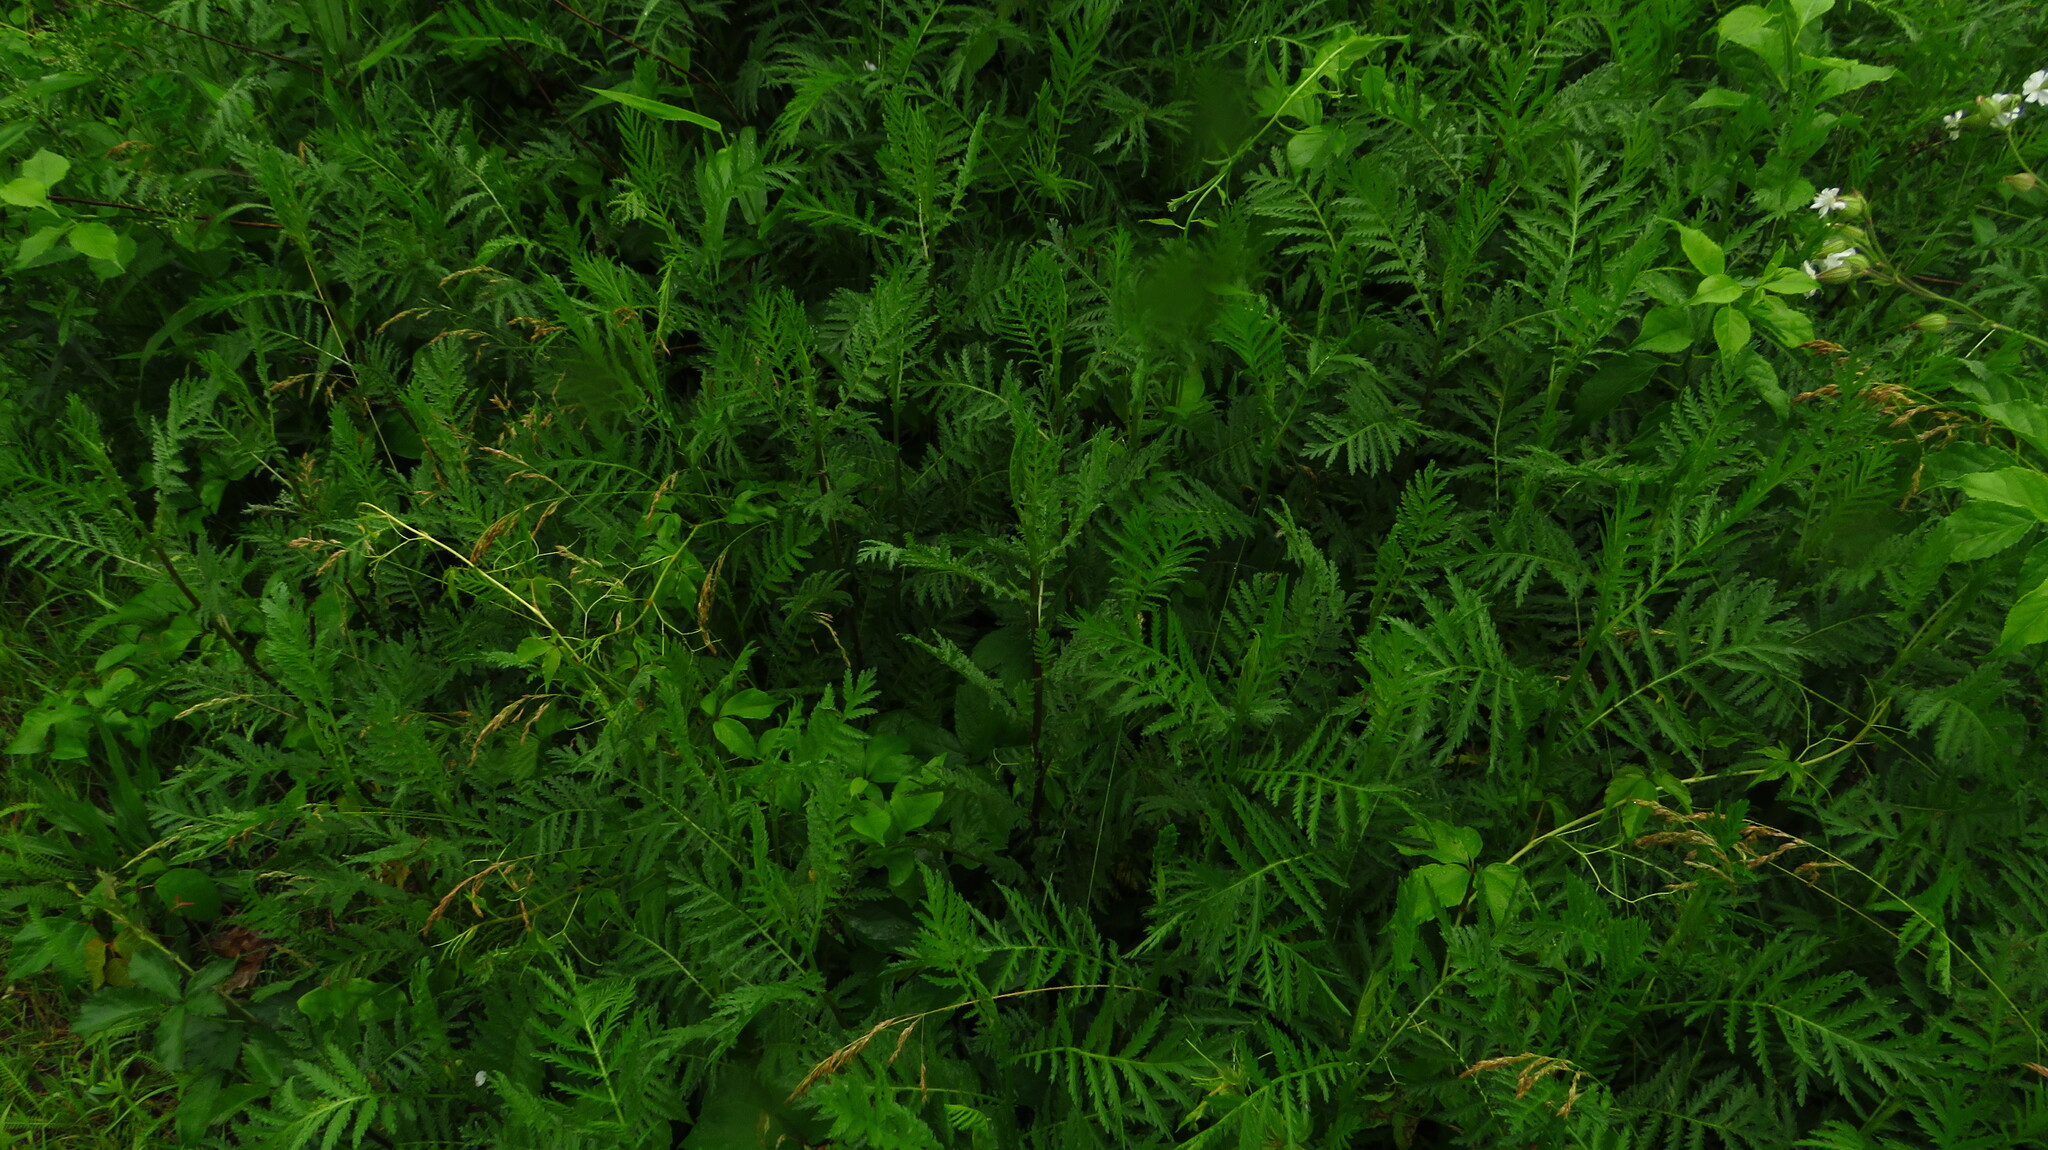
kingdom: Plantae
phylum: Tracheophyta
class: Magnoliopsida
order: Asterales
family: Asteraceae
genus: Tanacetum
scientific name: Tanacetum vulgare
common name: Common tansy
